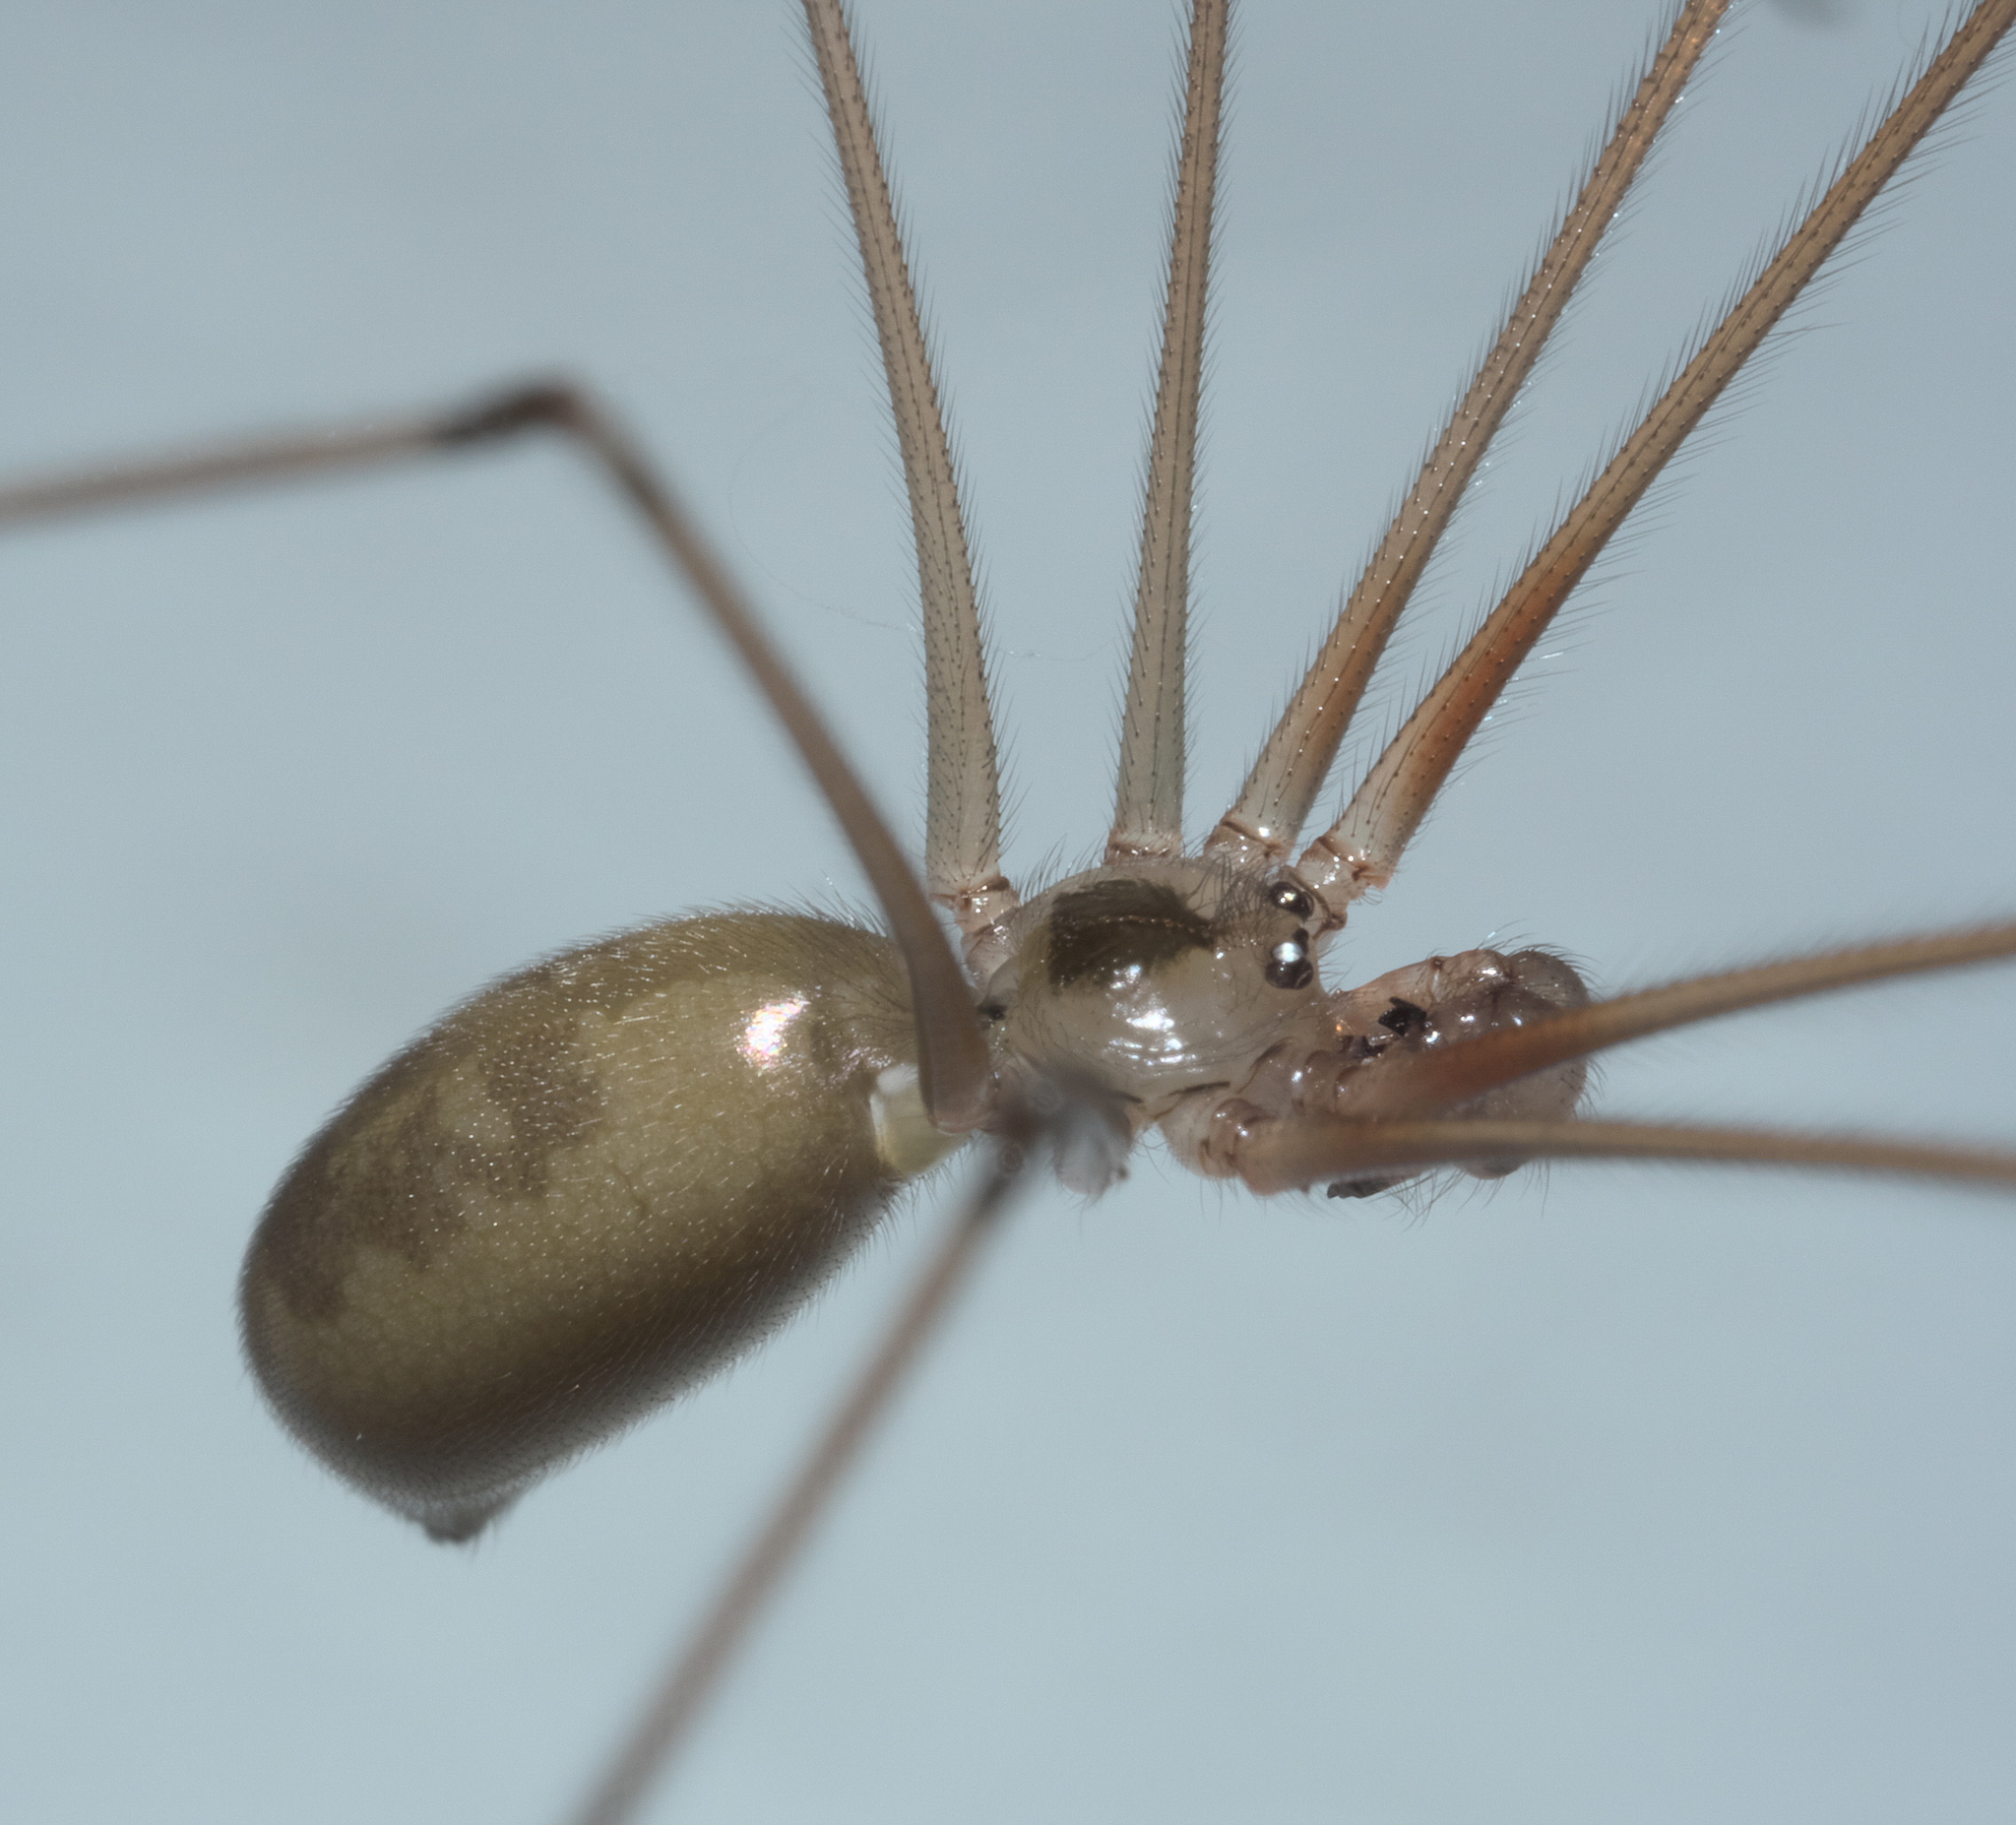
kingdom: Animalia
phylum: Arthropoda
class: Arachnida
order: Araneae
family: Pholcidae
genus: Pholcus
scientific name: Pholcus phalangioides
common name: Longbodied cellar spider
